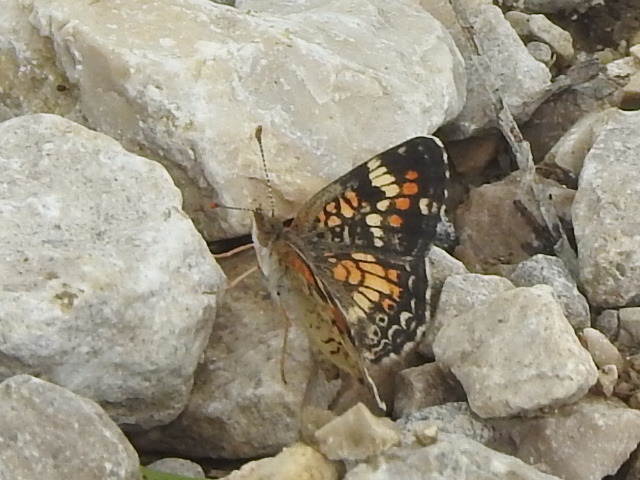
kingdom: Animalia
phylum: Arthropoda
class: Insecta
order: Lepidoptera
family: Nymphalidae
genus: Phyciodes
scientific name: Phyciodes phaon
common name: Phaon crescent
